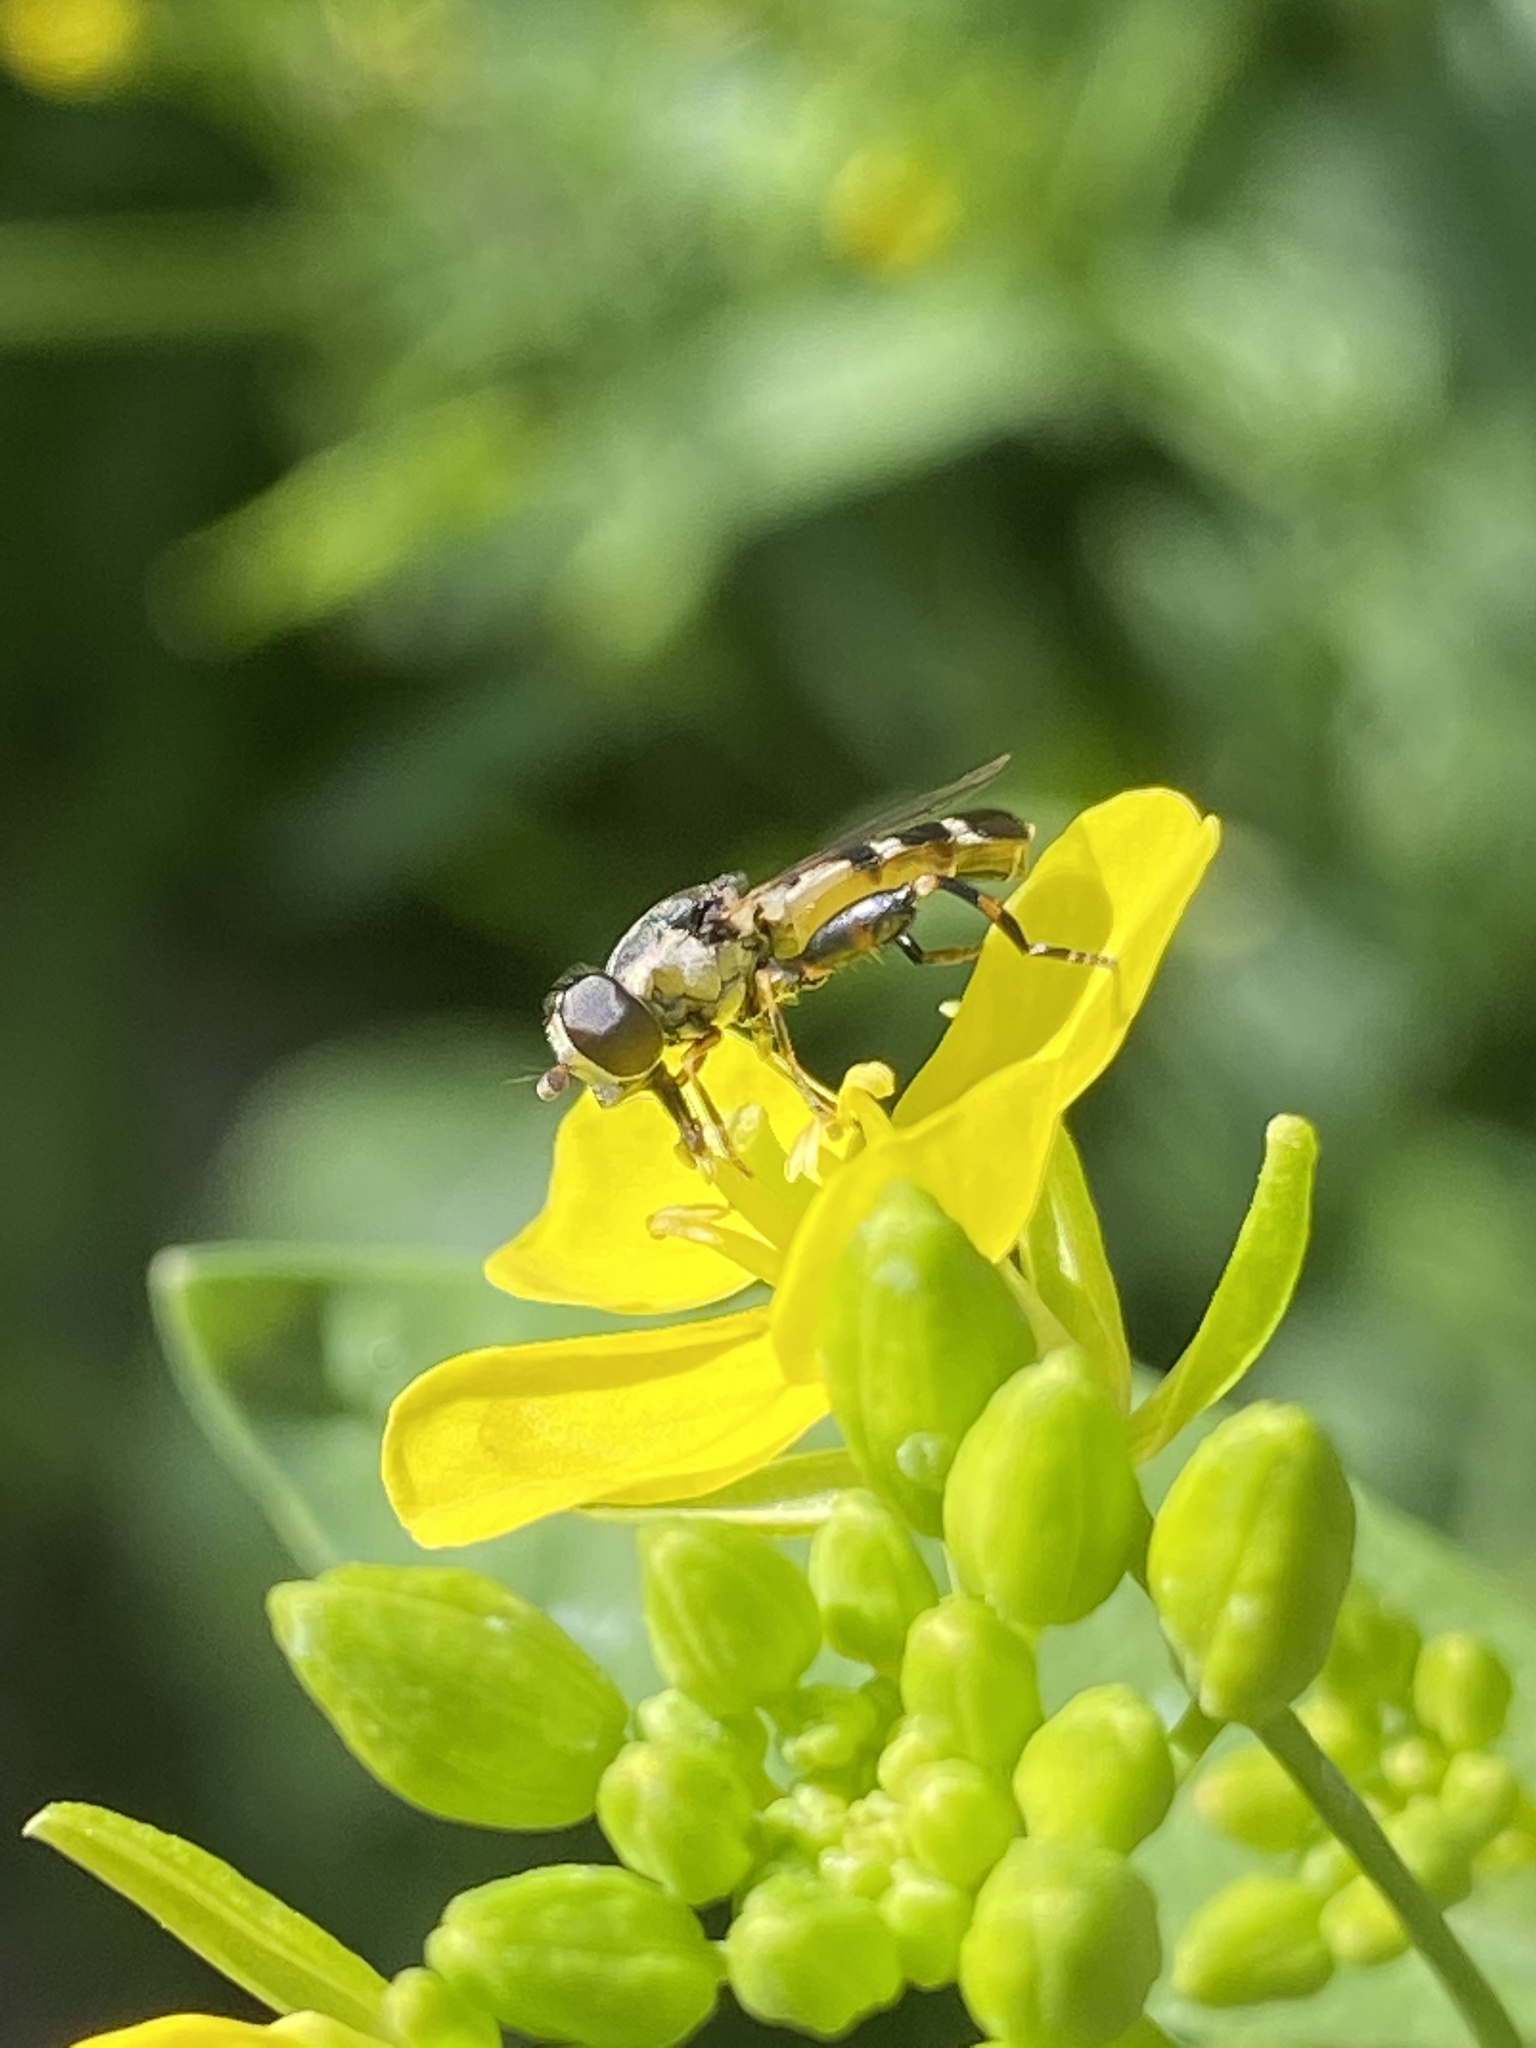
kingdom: Animalia
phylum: Arthropoda
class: Insecta
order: Diptera
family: Syrphidae
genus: Syritta
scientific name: Syritta pipiens
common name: Hover fly
